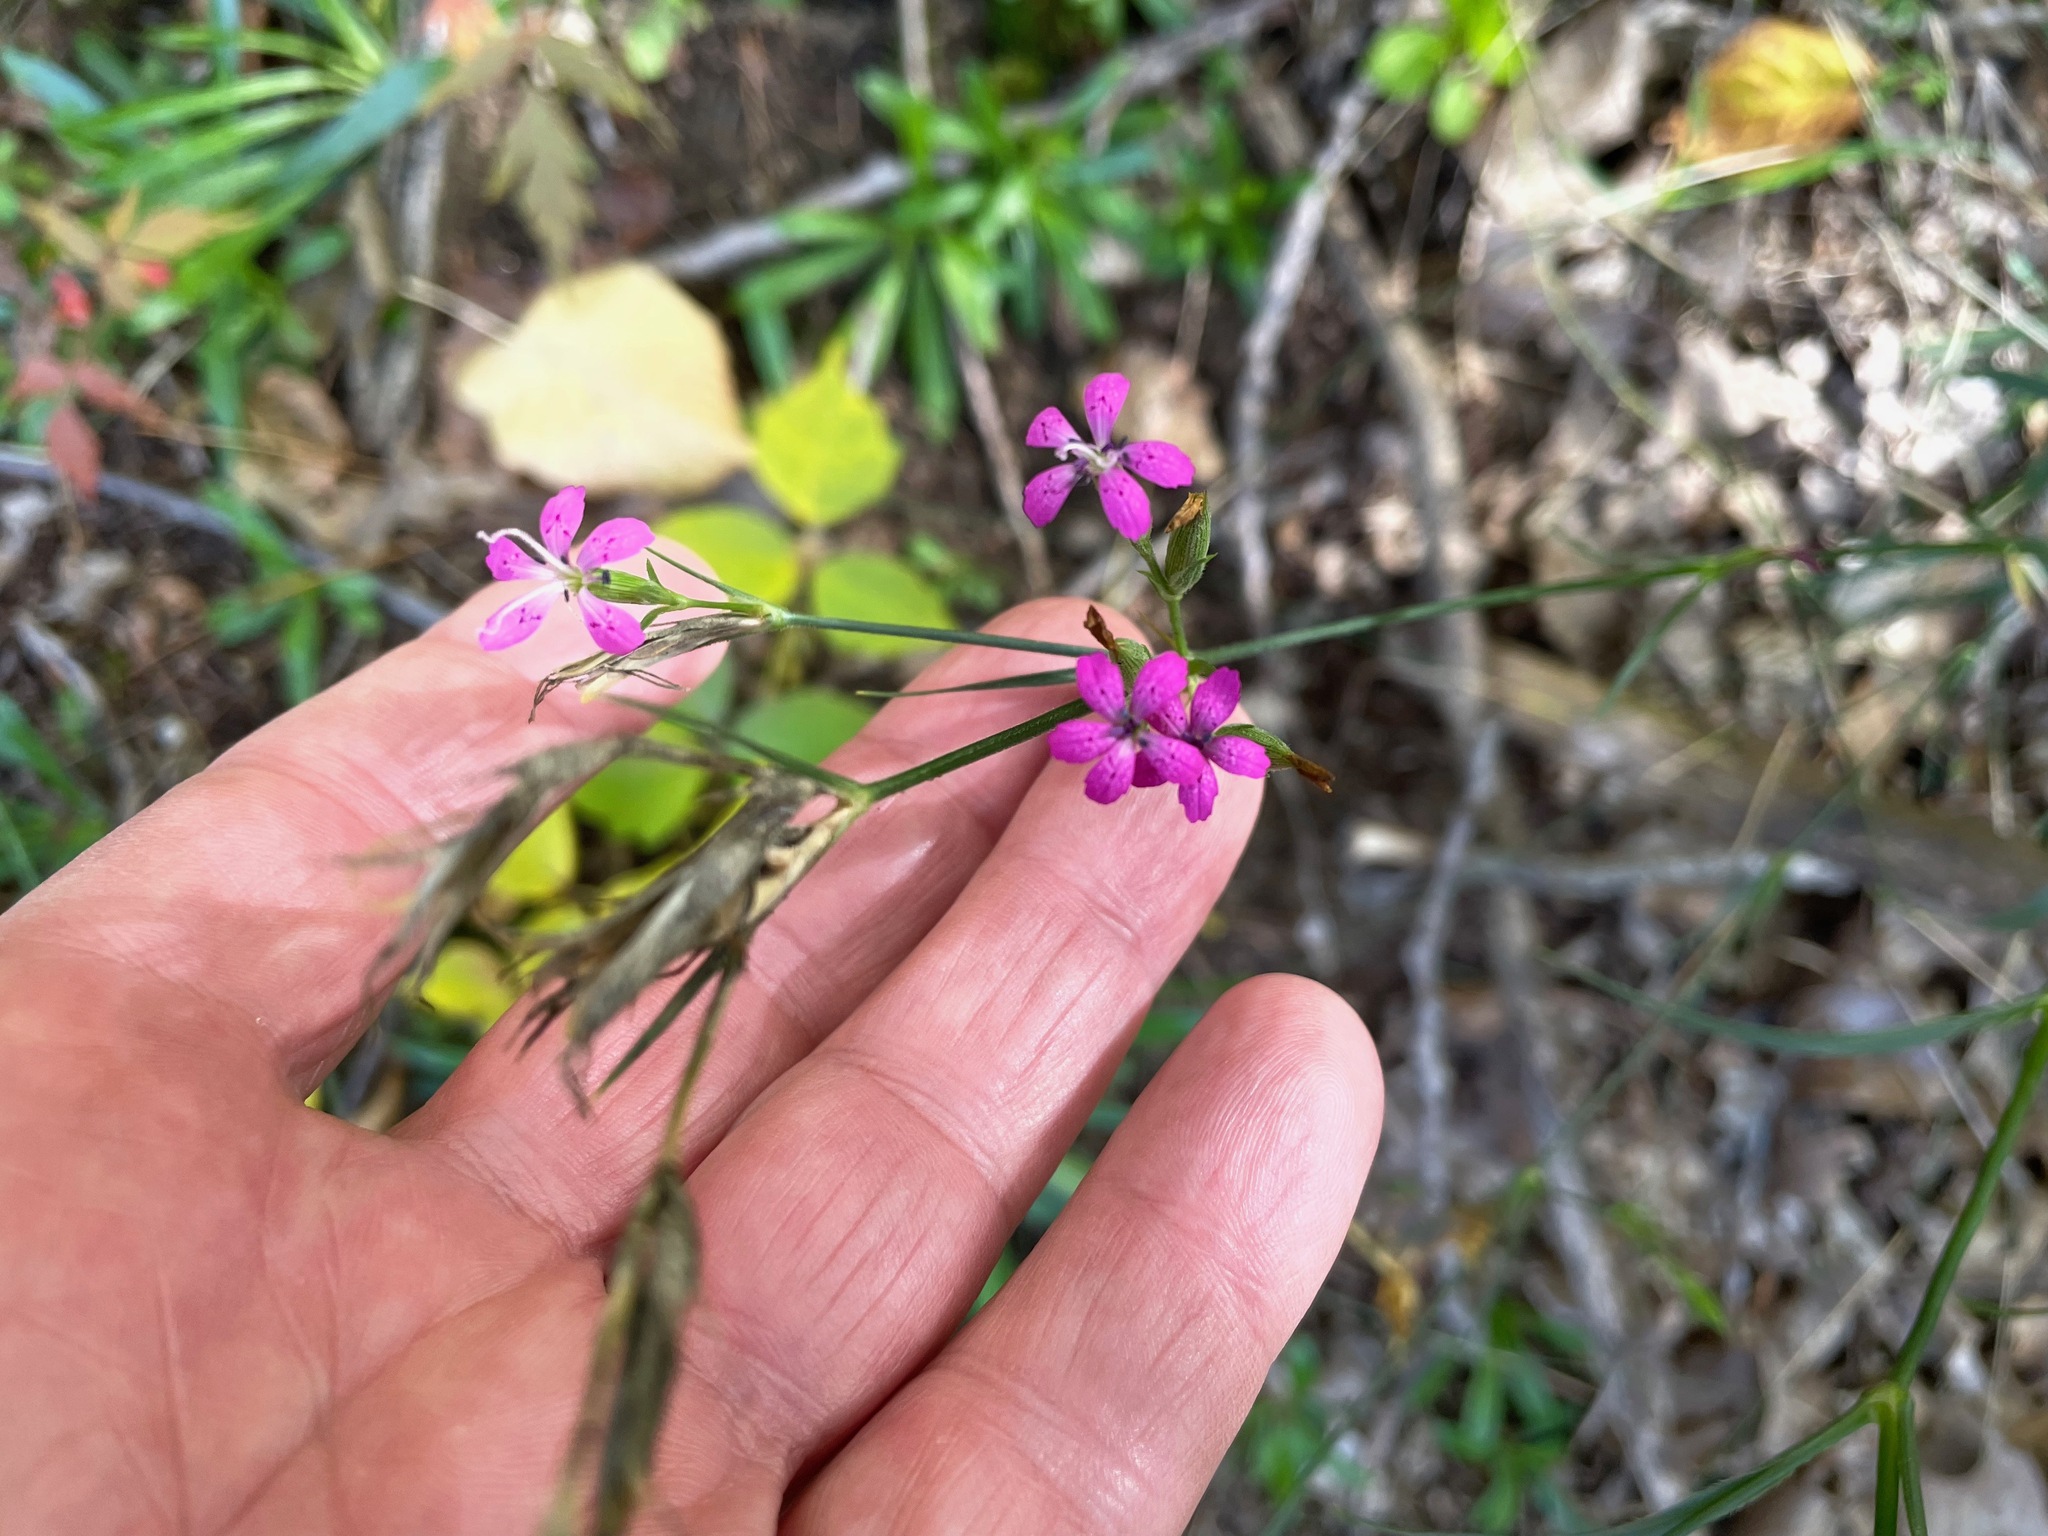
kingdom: Plantae
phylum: Tracheophyta
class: Magnoliopsida
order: Caryophyllales
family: Caryophyllaceae
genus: Dianthus
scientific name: Dianthus armeria
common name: Deptford pink
